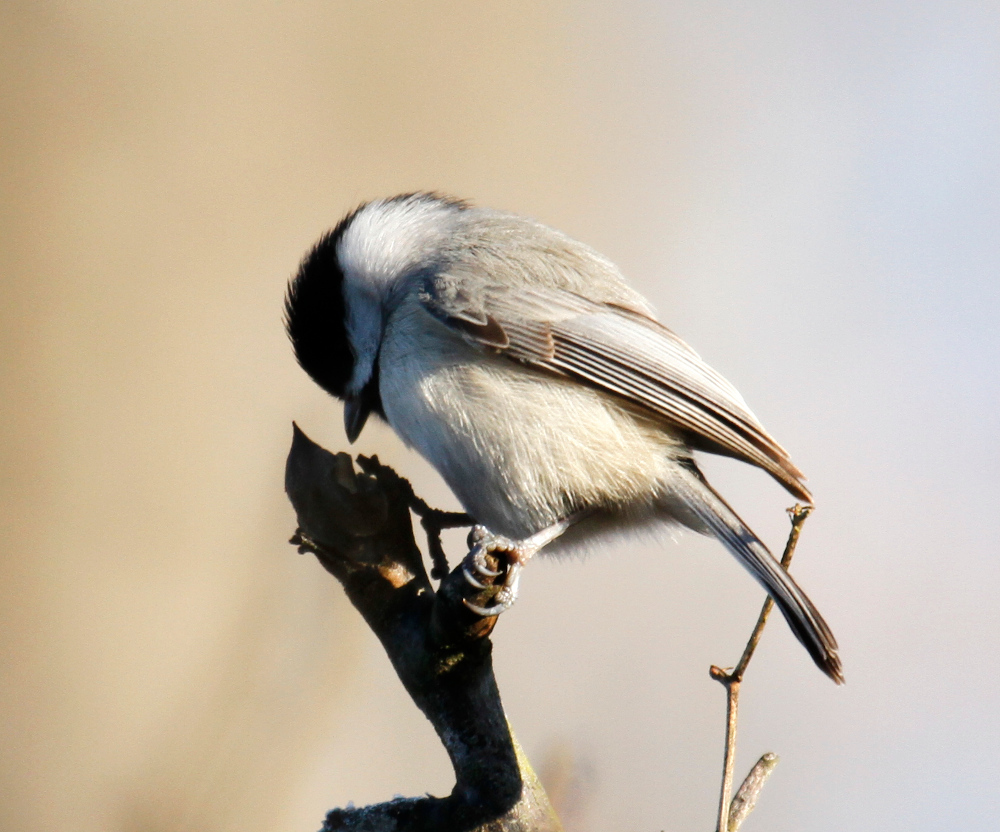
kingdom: Animalia
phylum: Chordata
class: Aves
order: Passeriformes
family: Paridae
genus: Poecile
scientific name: Poecile carolinensis
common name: Carolina chickadee
